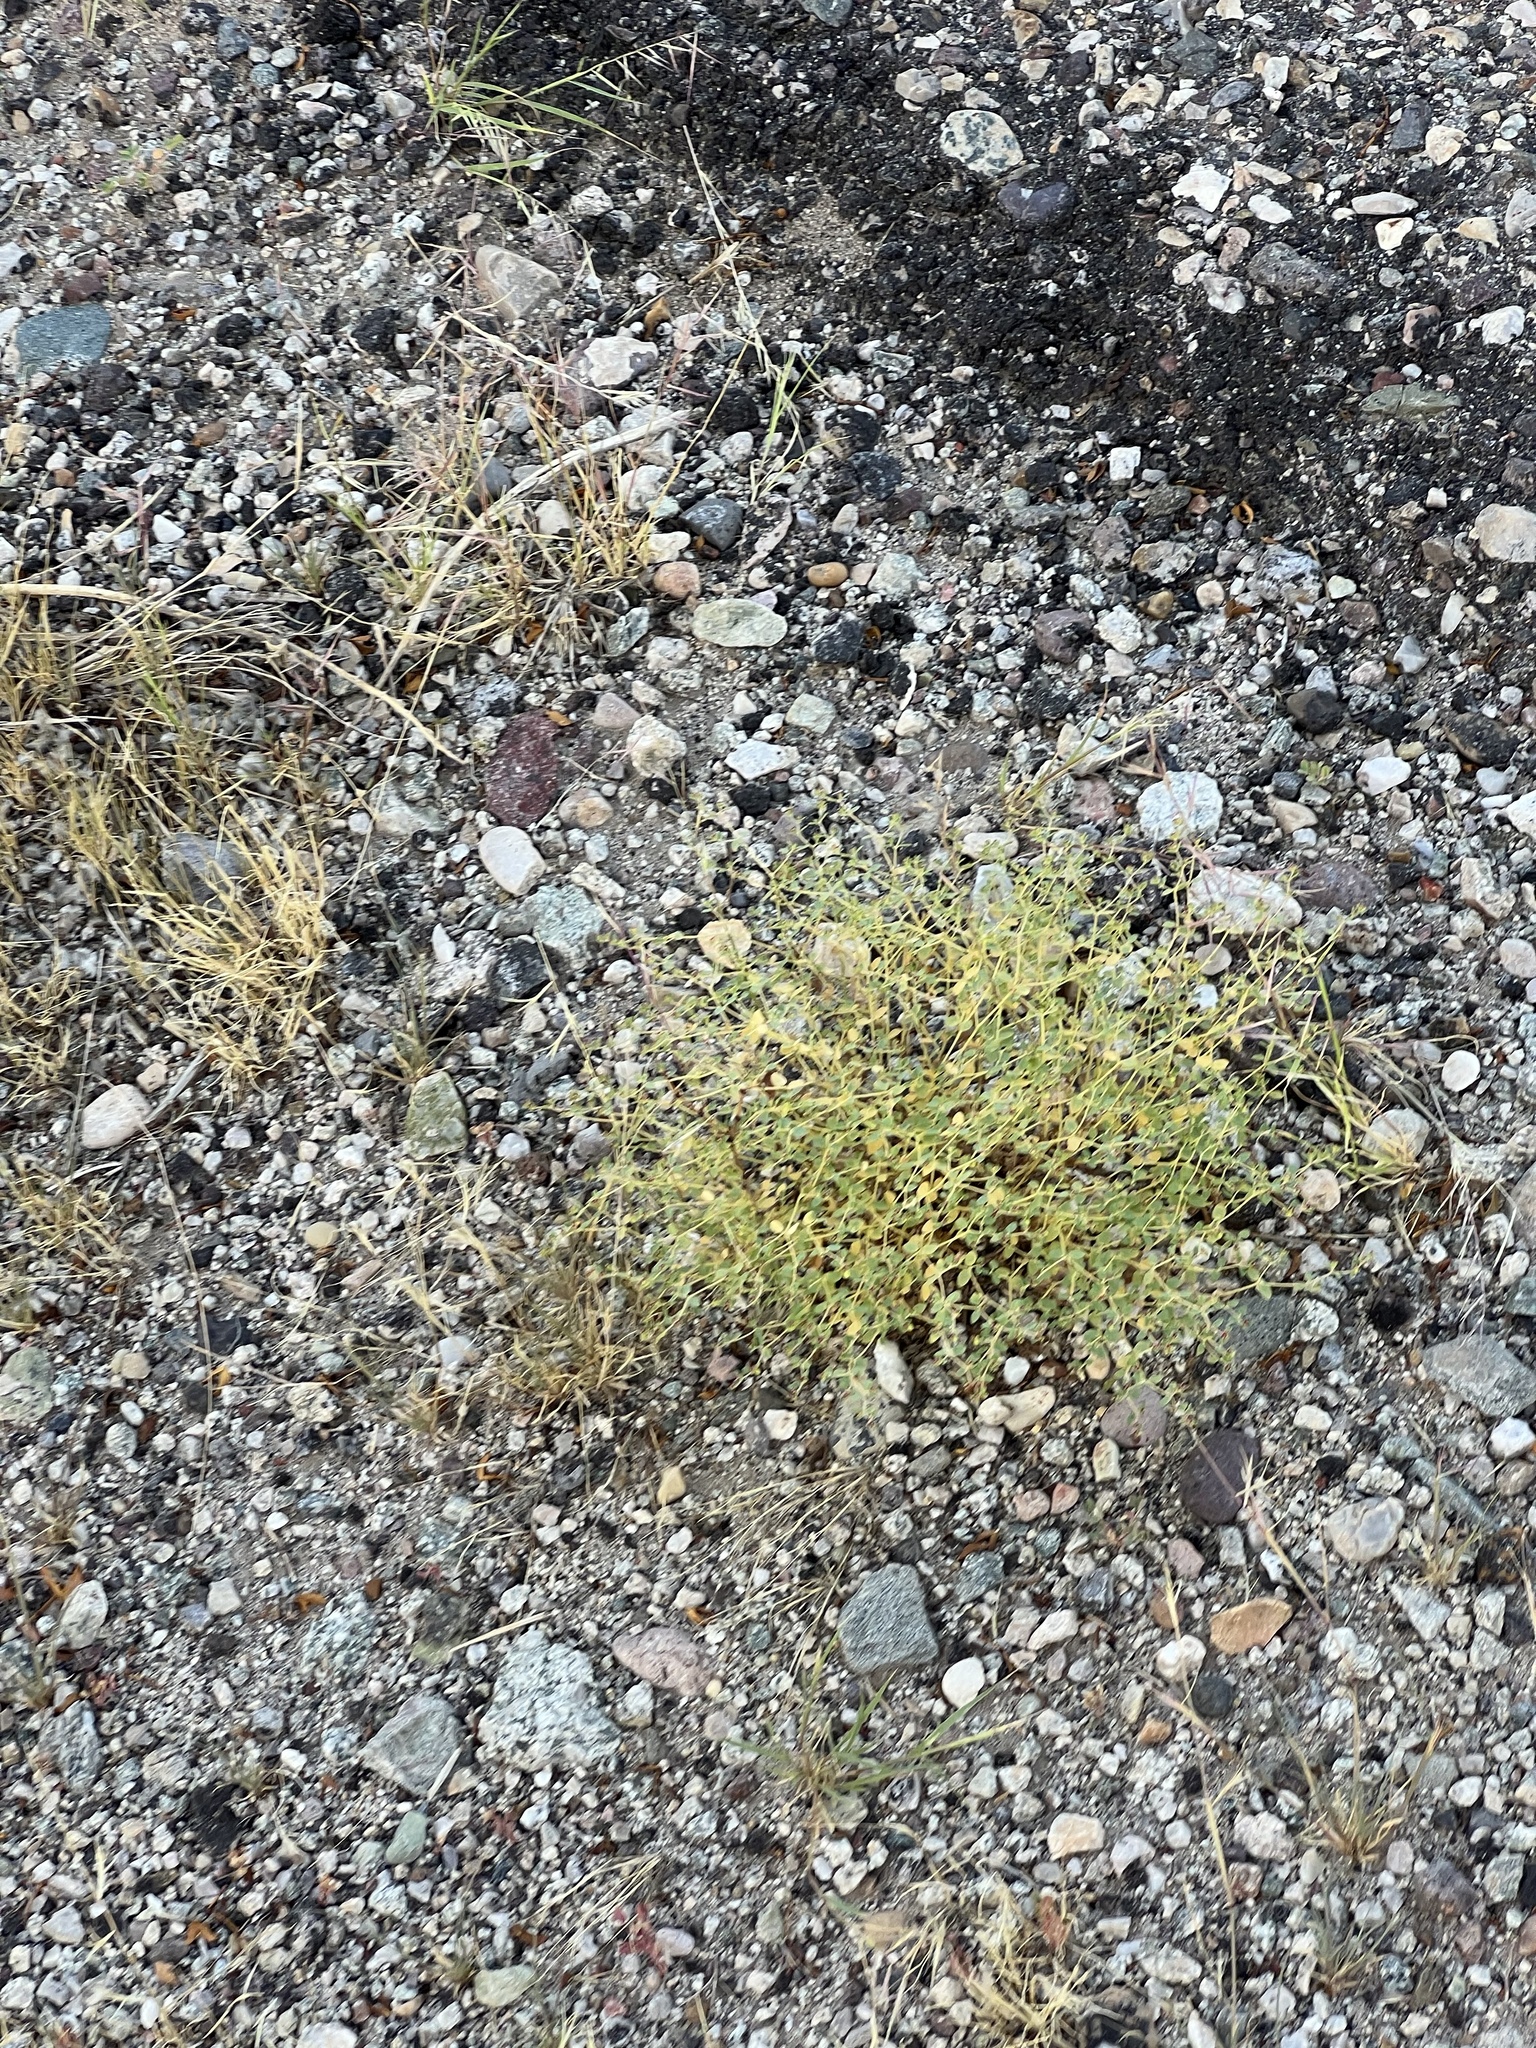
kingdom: Plantae
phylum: Tracheophyta
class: Magnoliopsida
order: Malpighiales
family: Euphorbiaceae
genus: Euphorbia
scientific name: Euphorbia polycarpa
